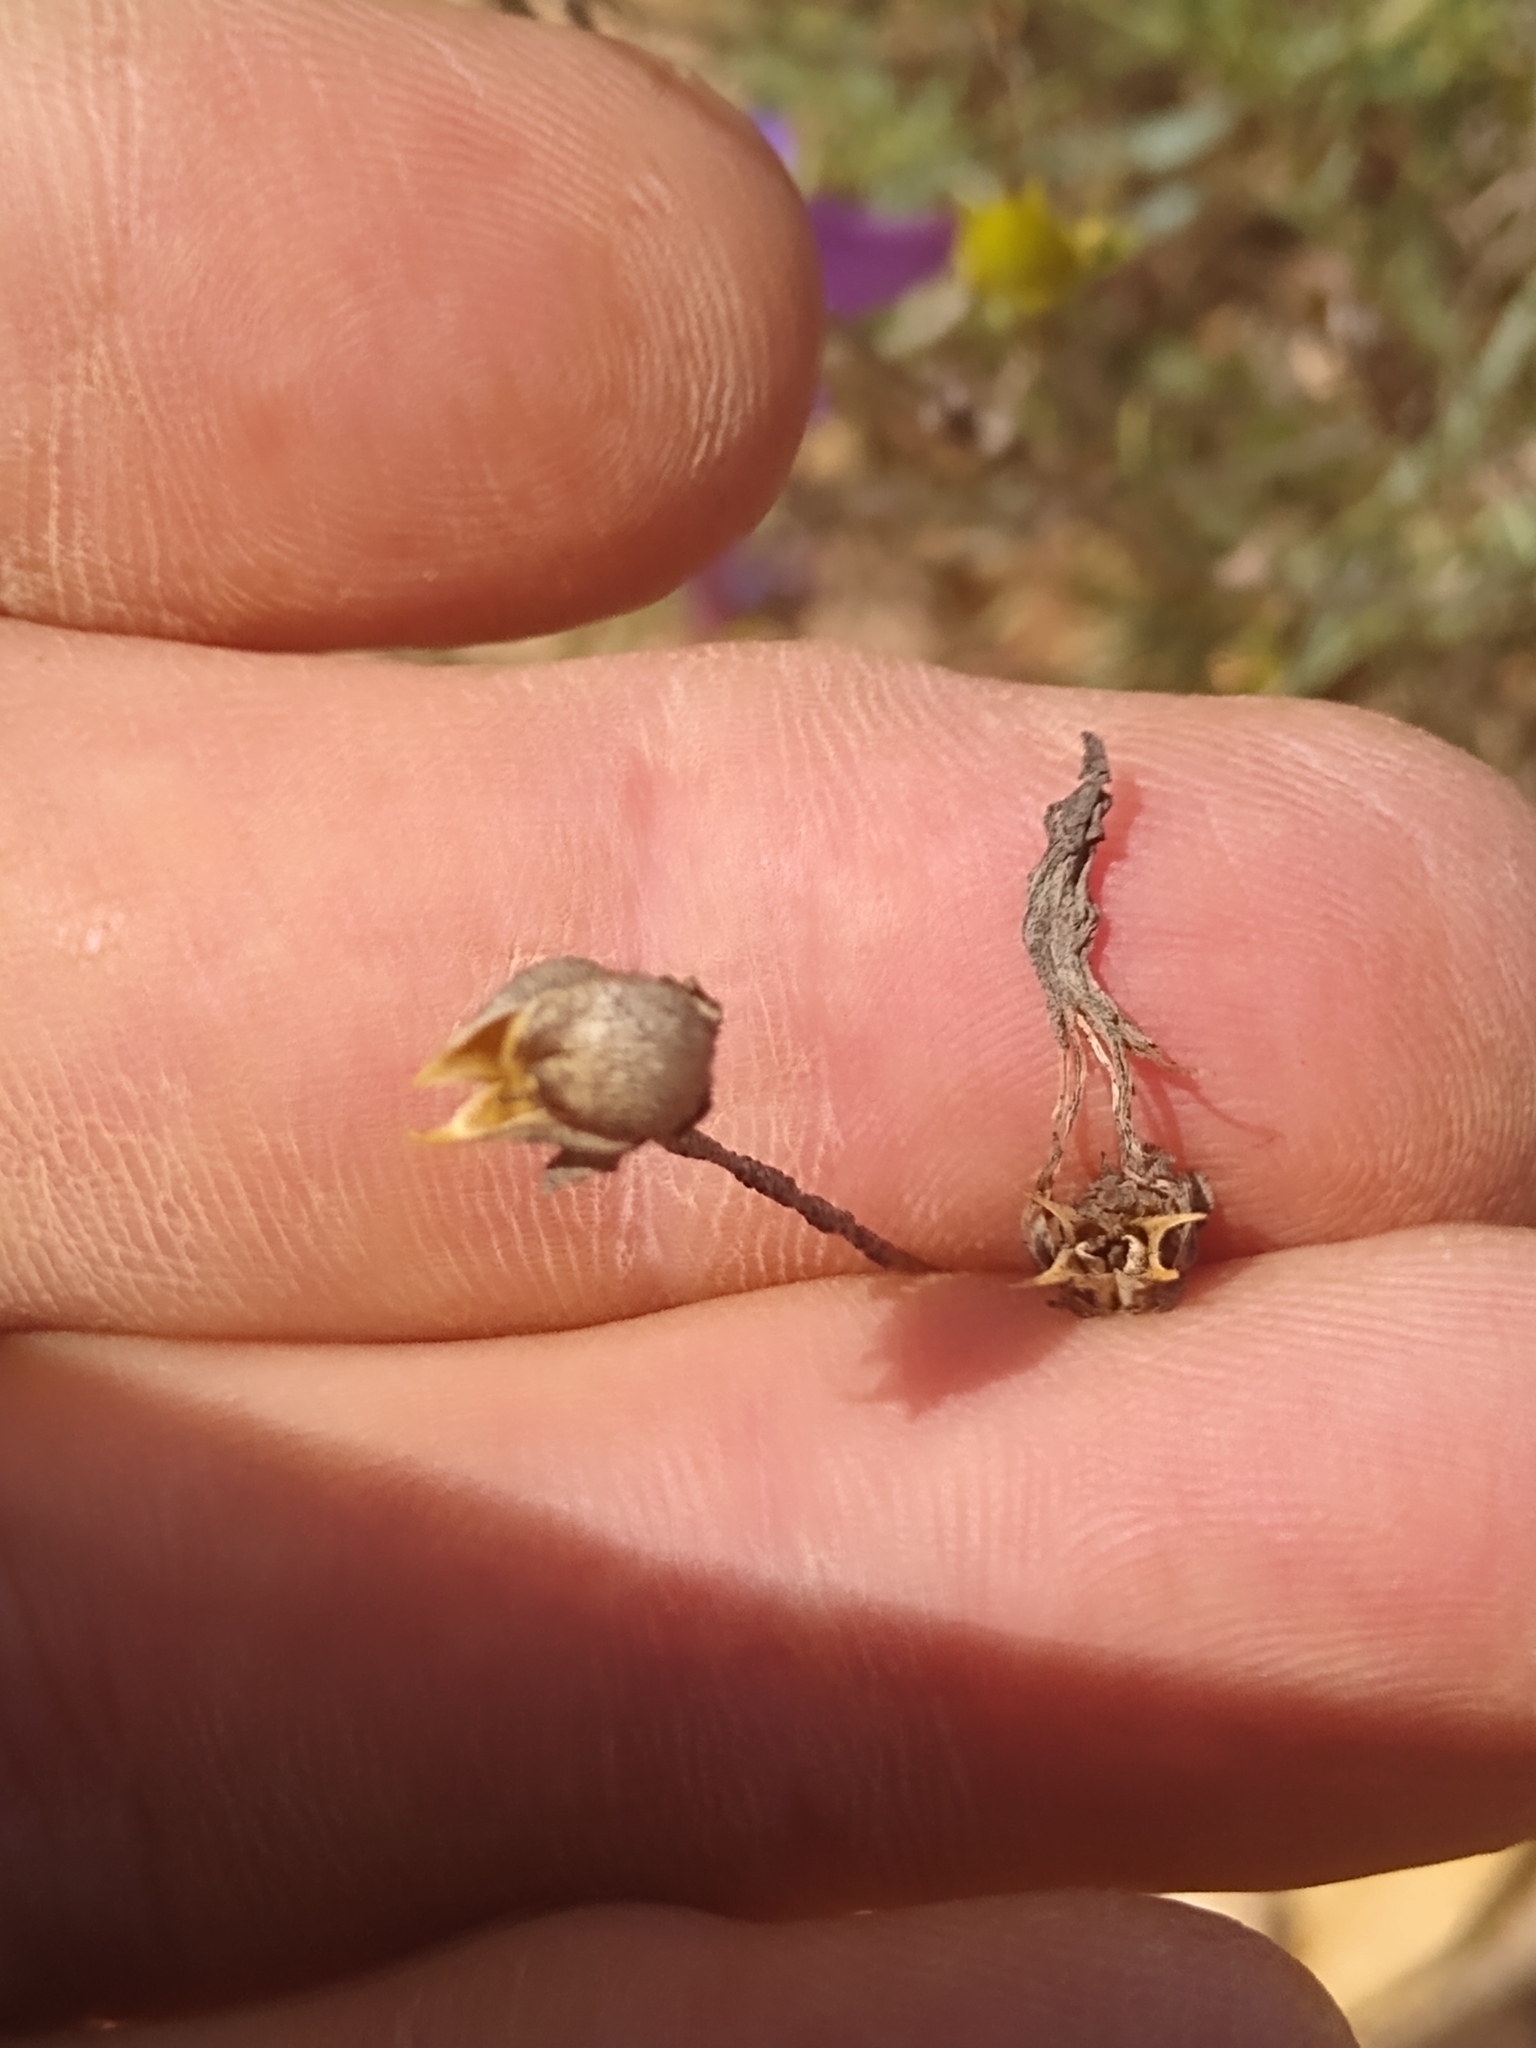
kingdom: Plantae
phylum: Tracheophyta
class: Magnoliopsida
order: Lamiales
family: Plantaginaceae
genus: Penstemon
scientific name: Penstemon heterophyllus
